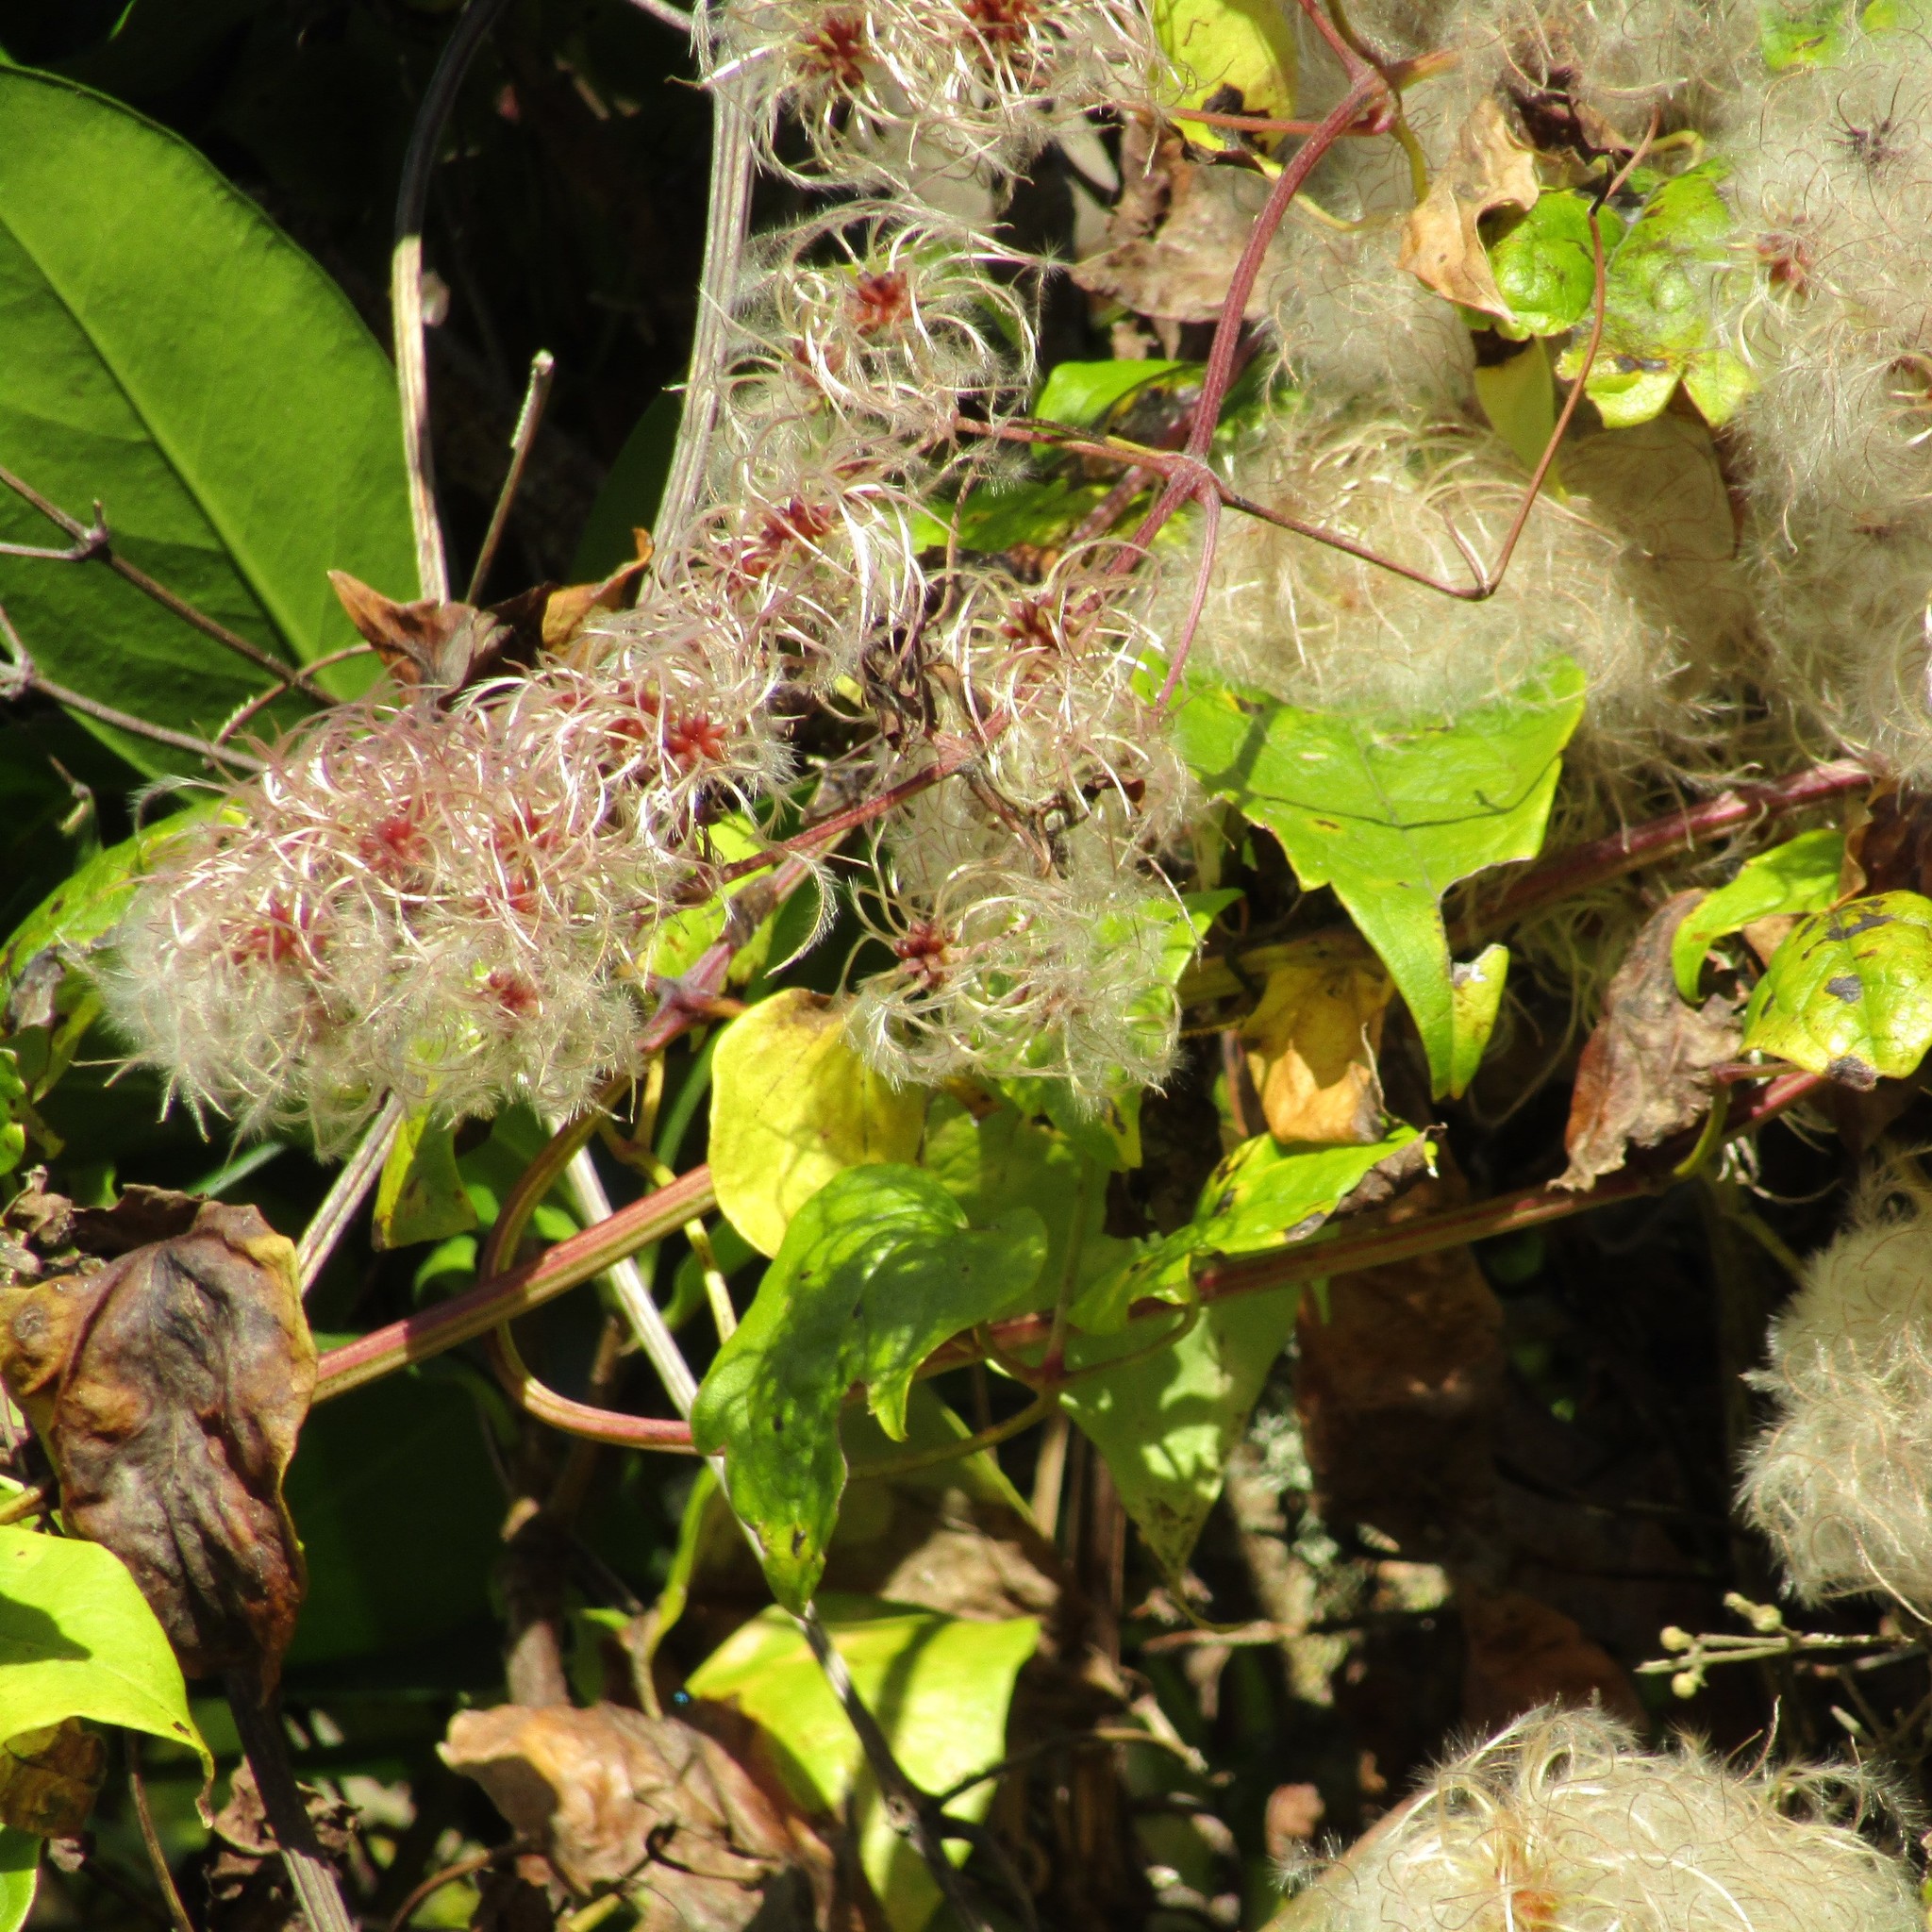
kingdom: Plantae
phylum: Tracheophyta
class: Magnoliopsida
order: Ranunculales
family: Ranunculaceae
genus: Clematis
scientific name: Clematis vitalba
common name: Evergreen clematis
